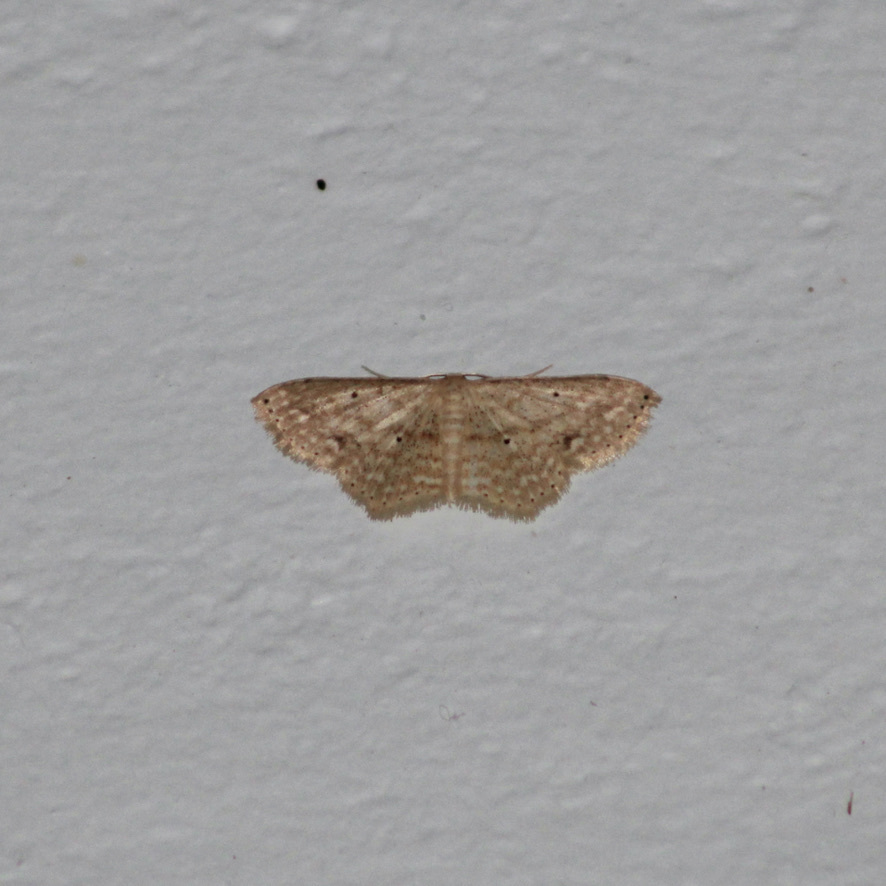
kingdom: Animalia
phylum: Arthropoda
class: Insecta
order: Lepidoptera
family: Geometridae
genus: Scopula
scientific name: Scopula subquadrata
